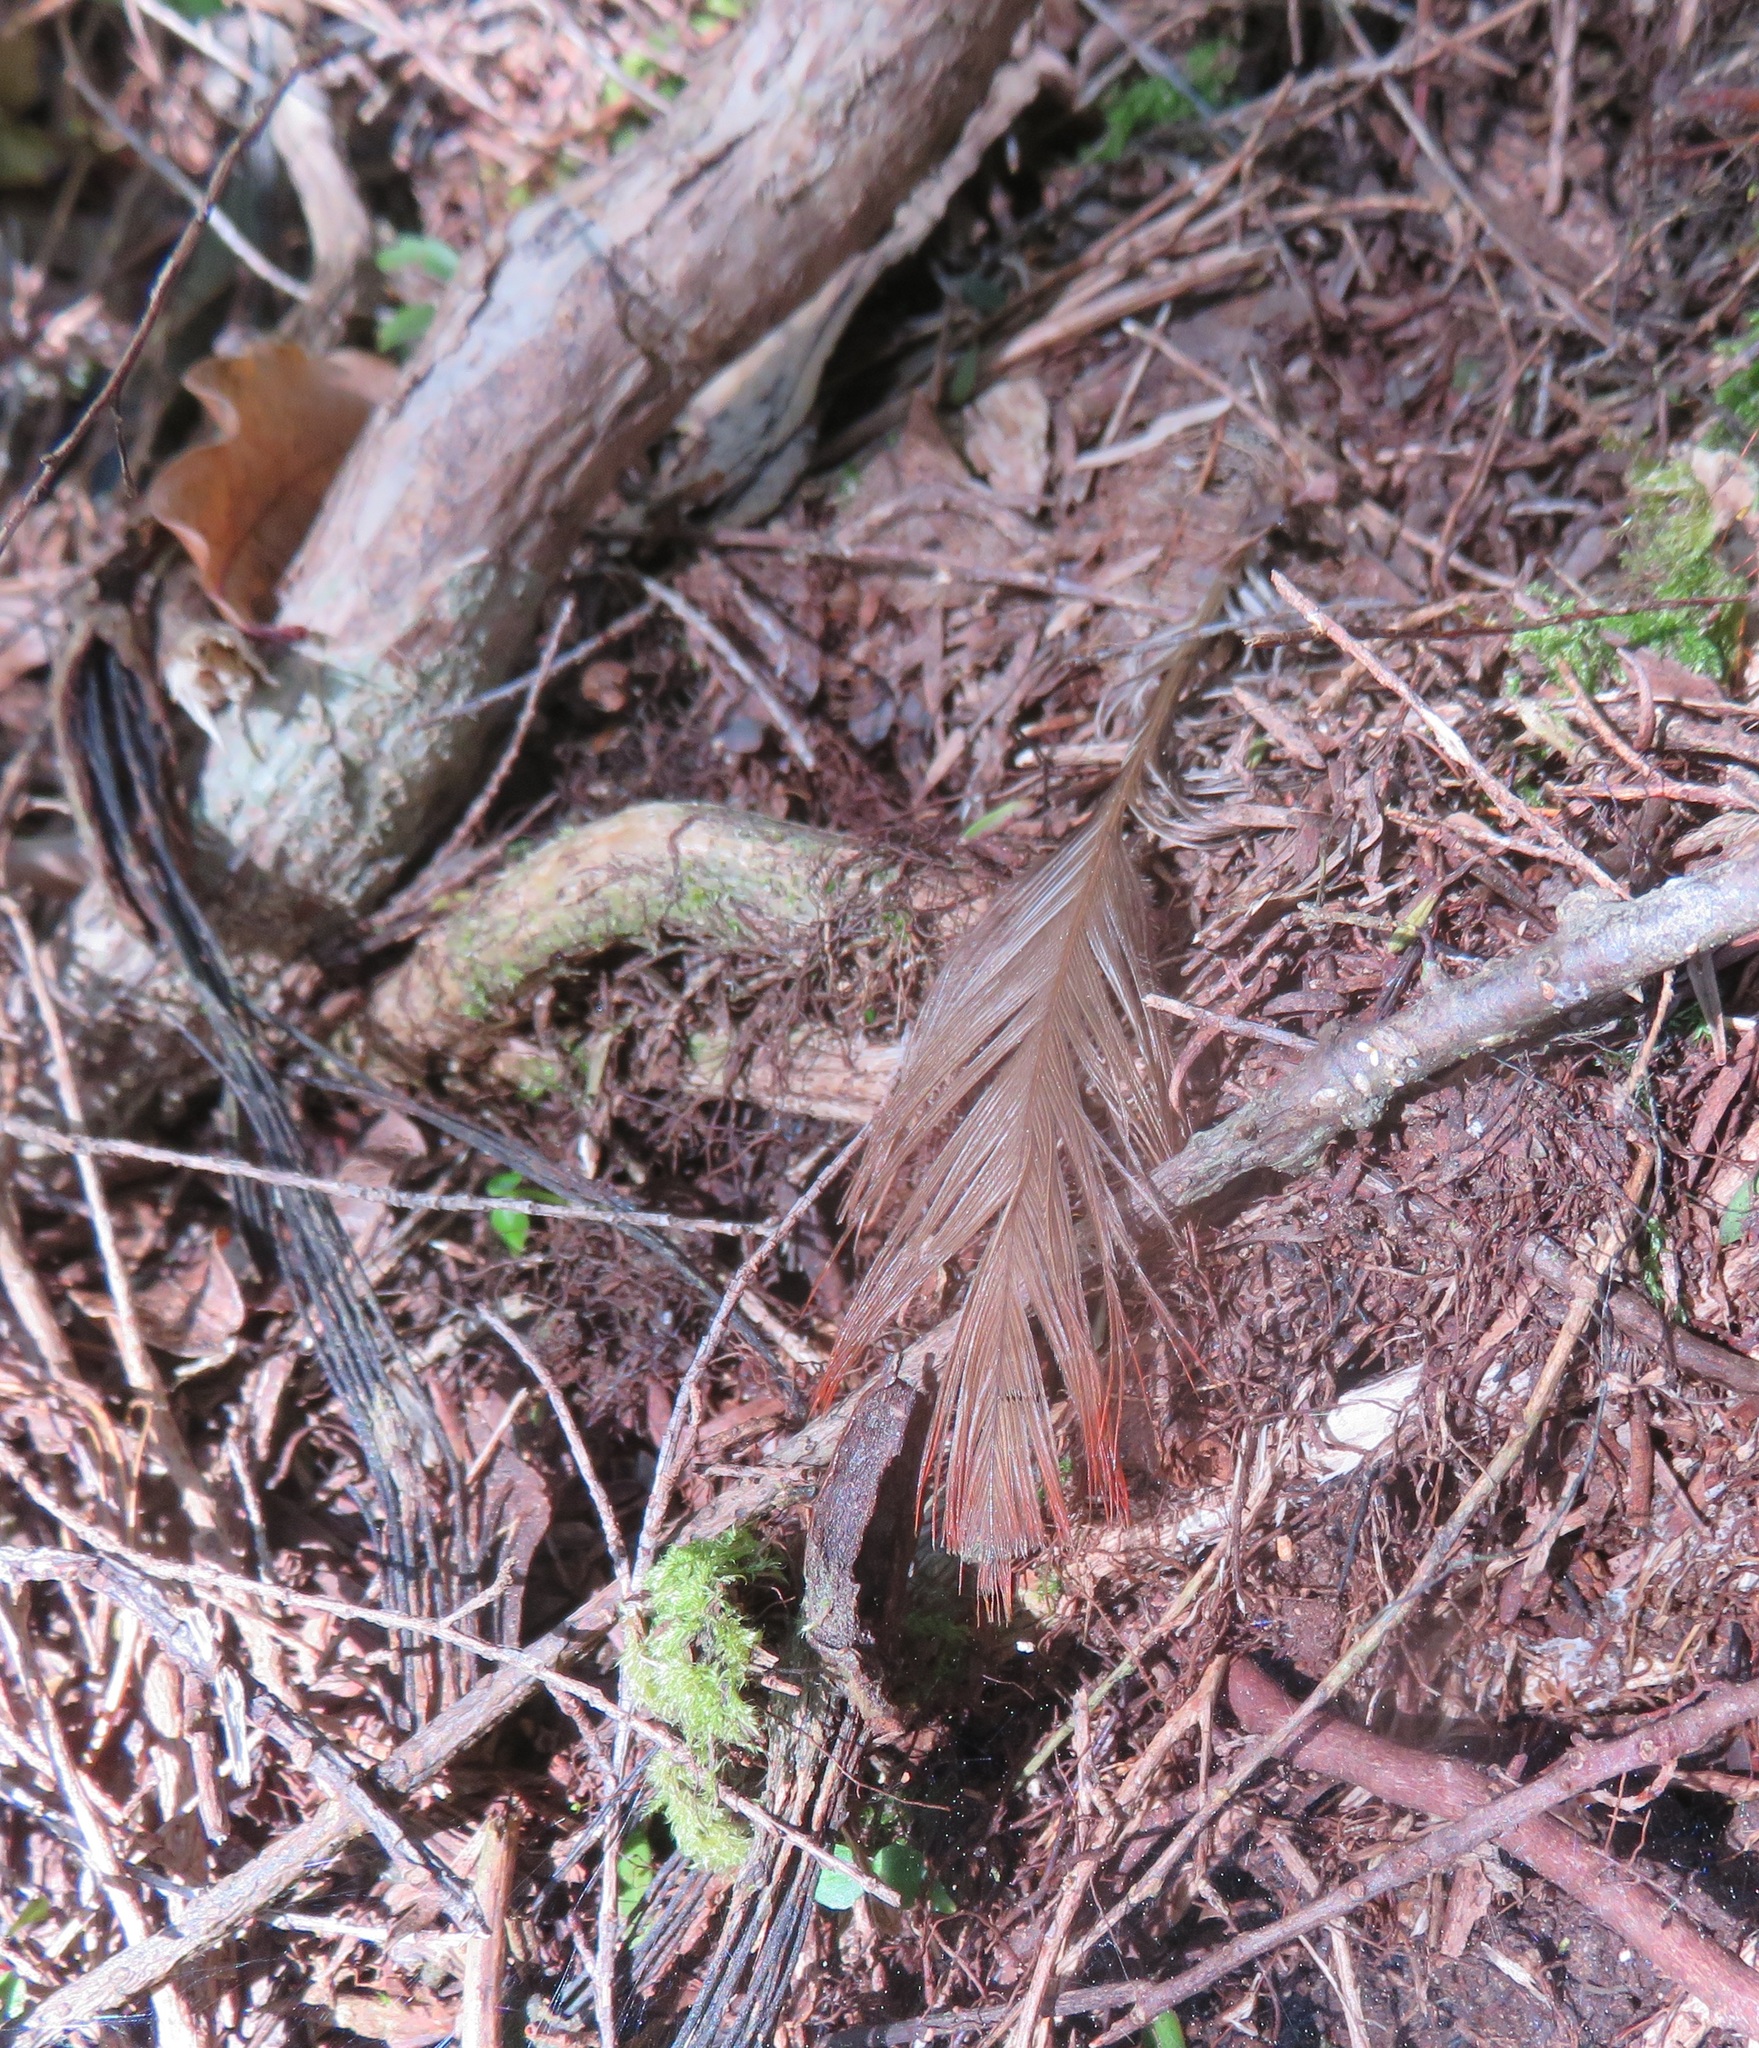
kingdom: Animalia
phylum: Chordata
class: Aves
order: Psittaciformes
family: Psittacidae
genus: Nestor
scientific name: Nestor meridionalis
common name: New zealand kaka
